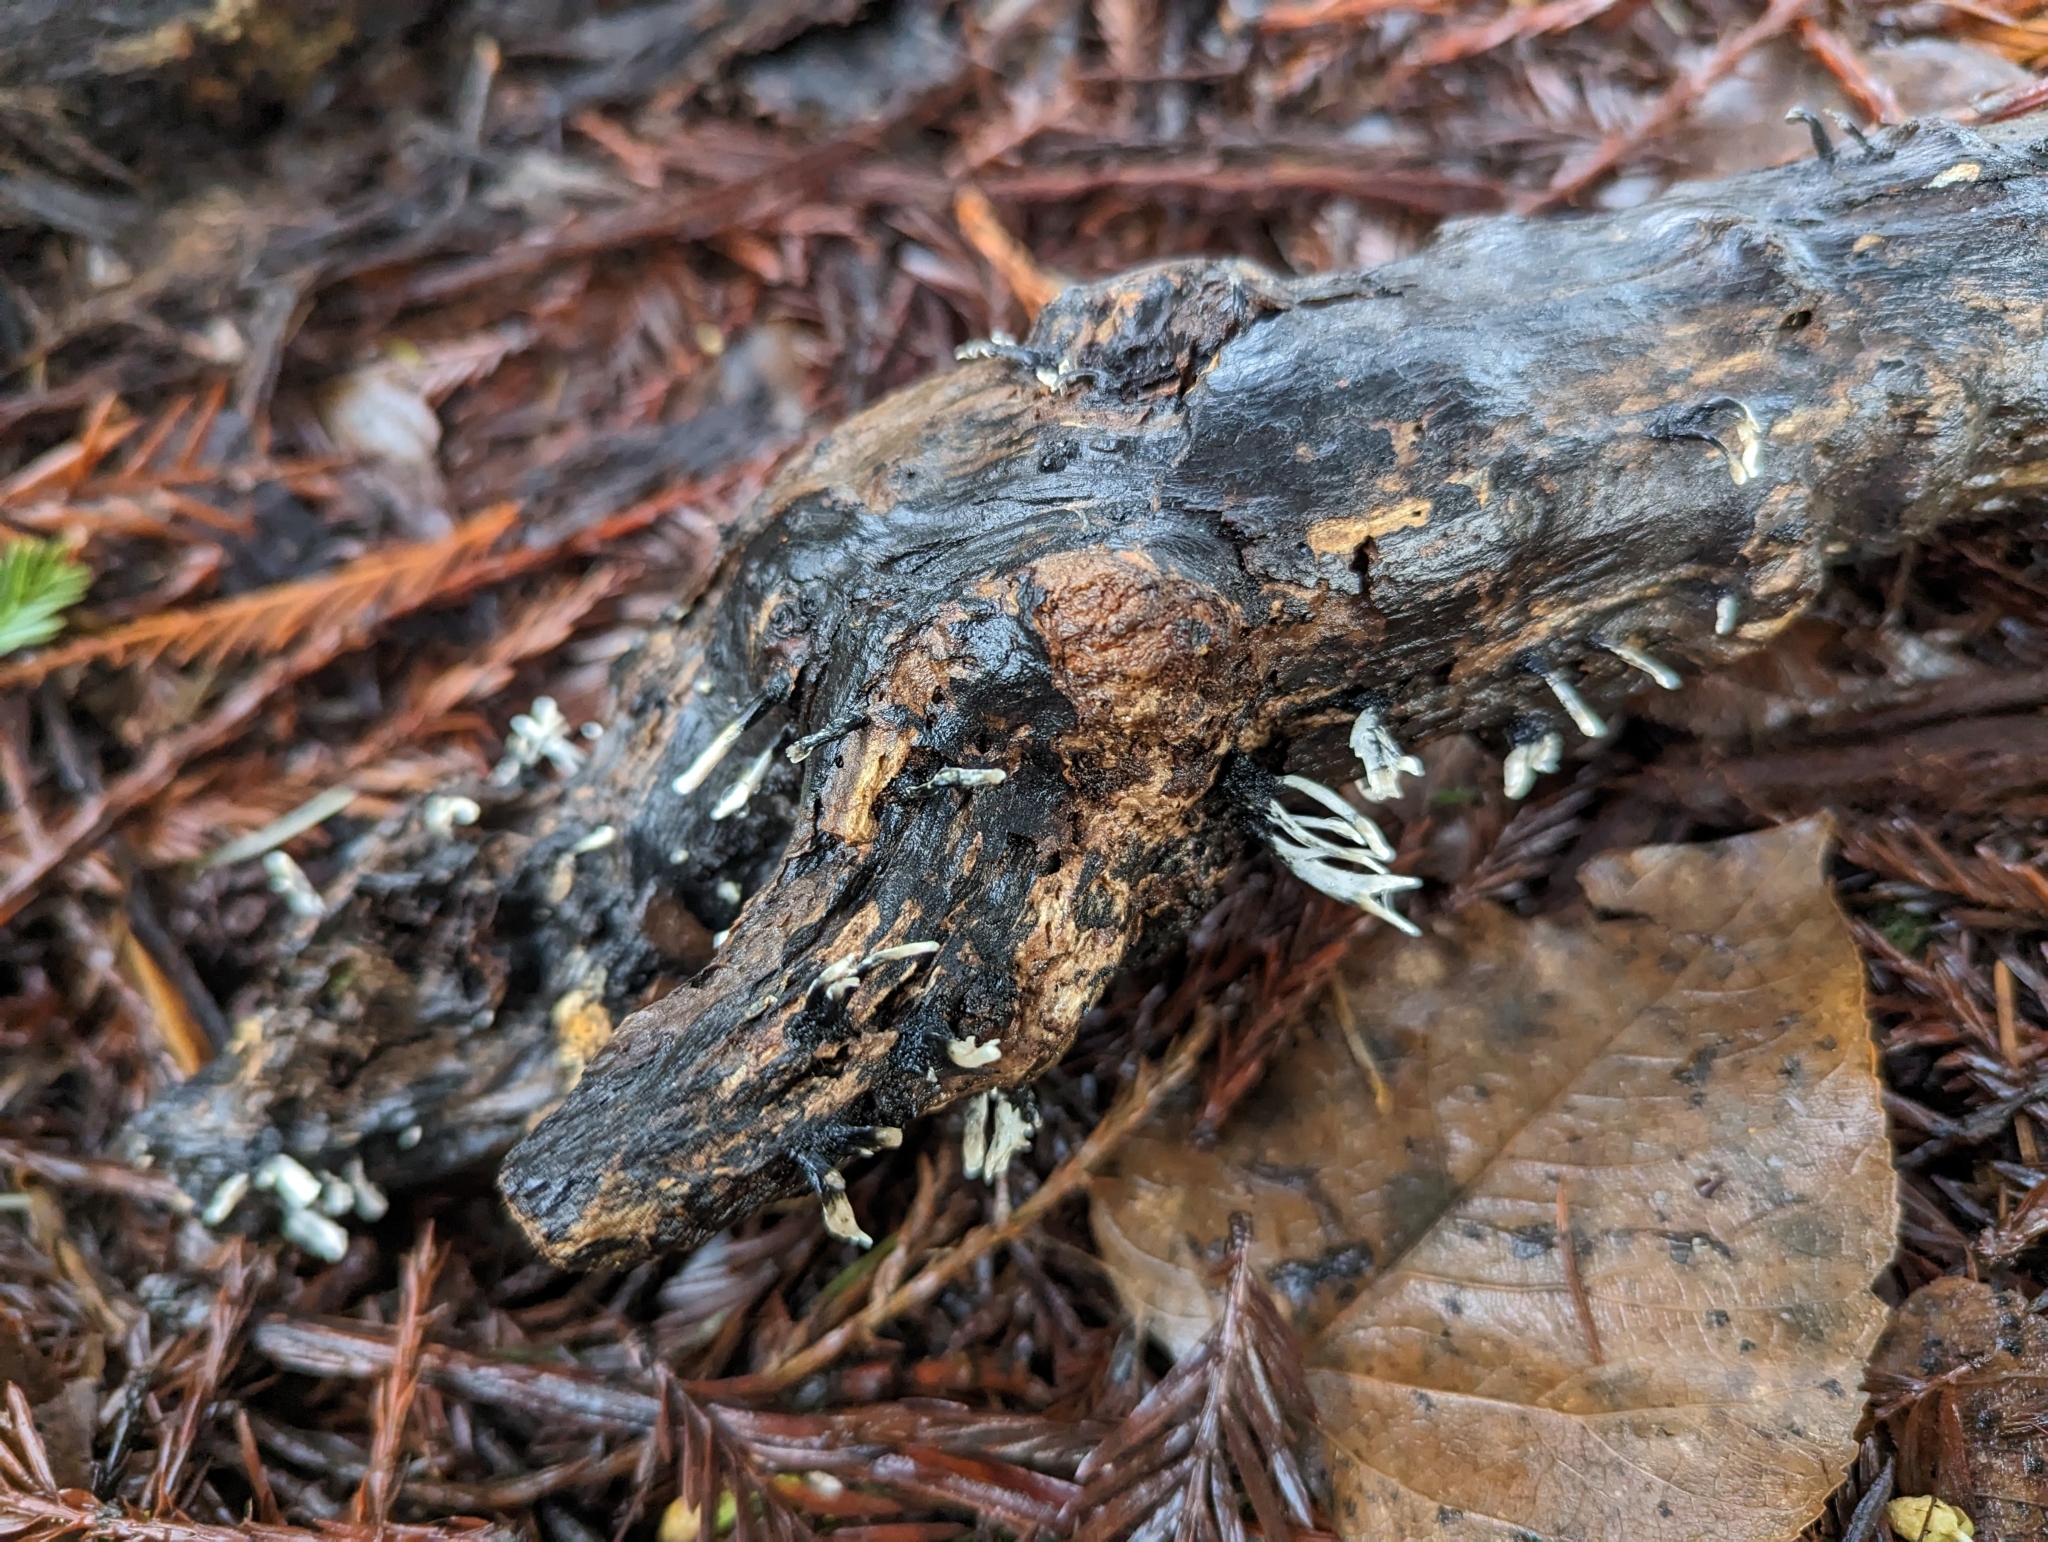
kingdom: Fungi
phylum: Ascomycota
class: Sordariomycetes
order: Xylariales
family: Xylariaceae
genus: Xylaria
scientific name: Xylaria hypoxylon
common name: Candle-snuff fungus
